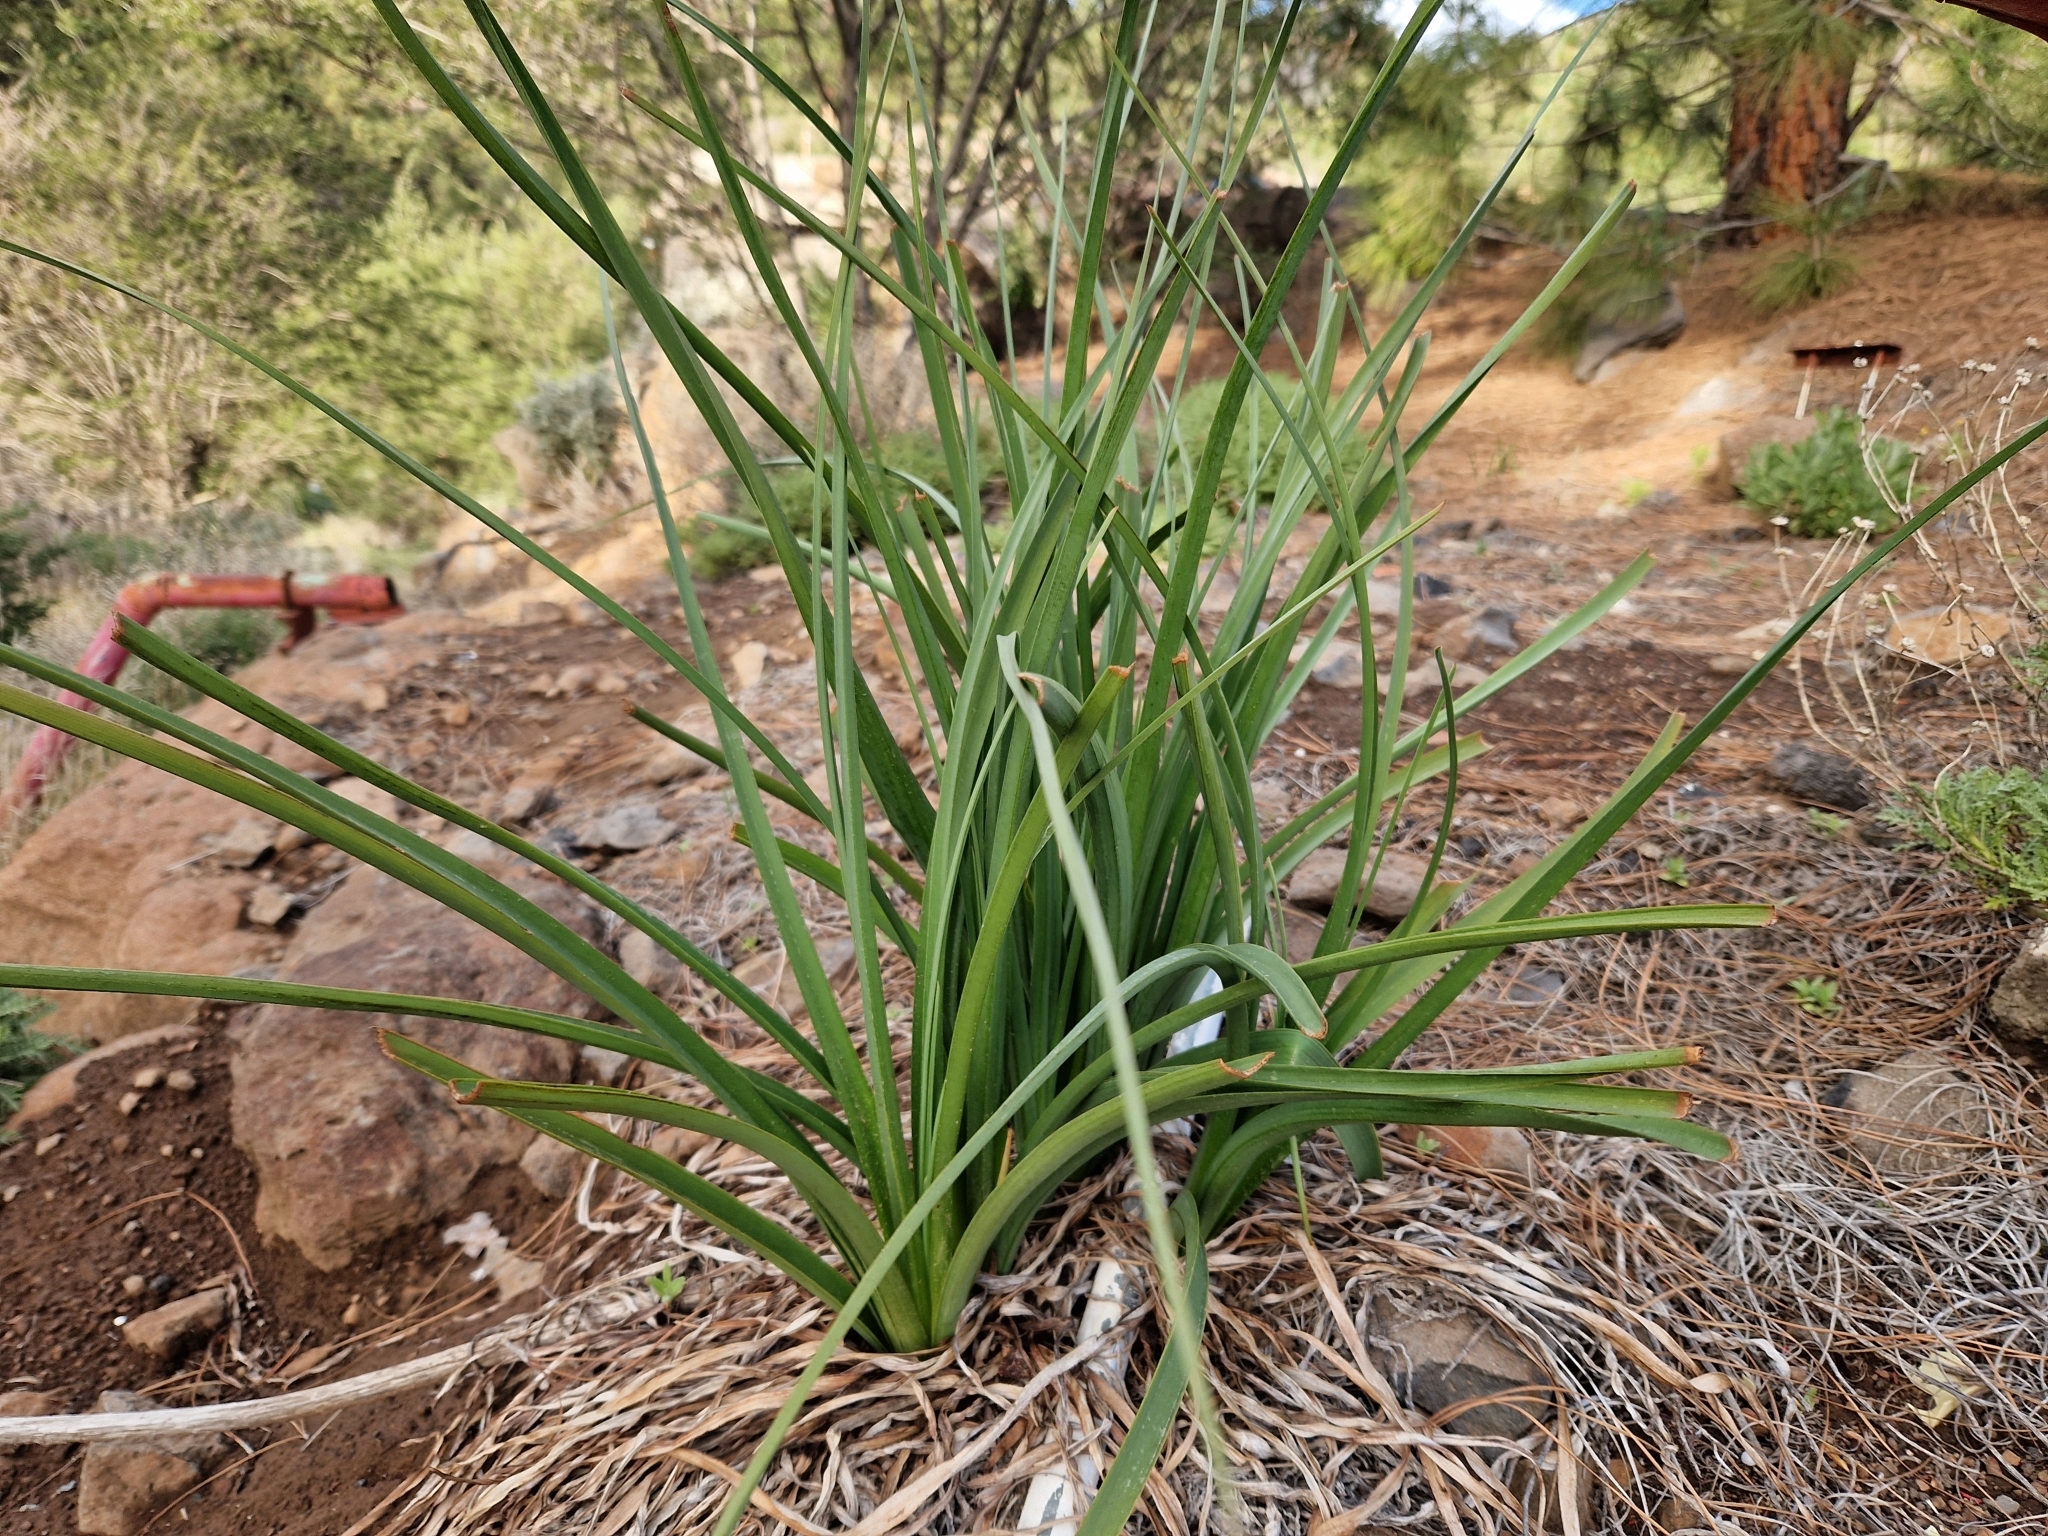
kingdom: Plantae
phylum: Tracheophyta
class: Liliopsida
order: Asparagales
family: Asphodelaceae
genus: Asphodelus
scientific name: Asphodelus ramosus
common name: Silverrod
